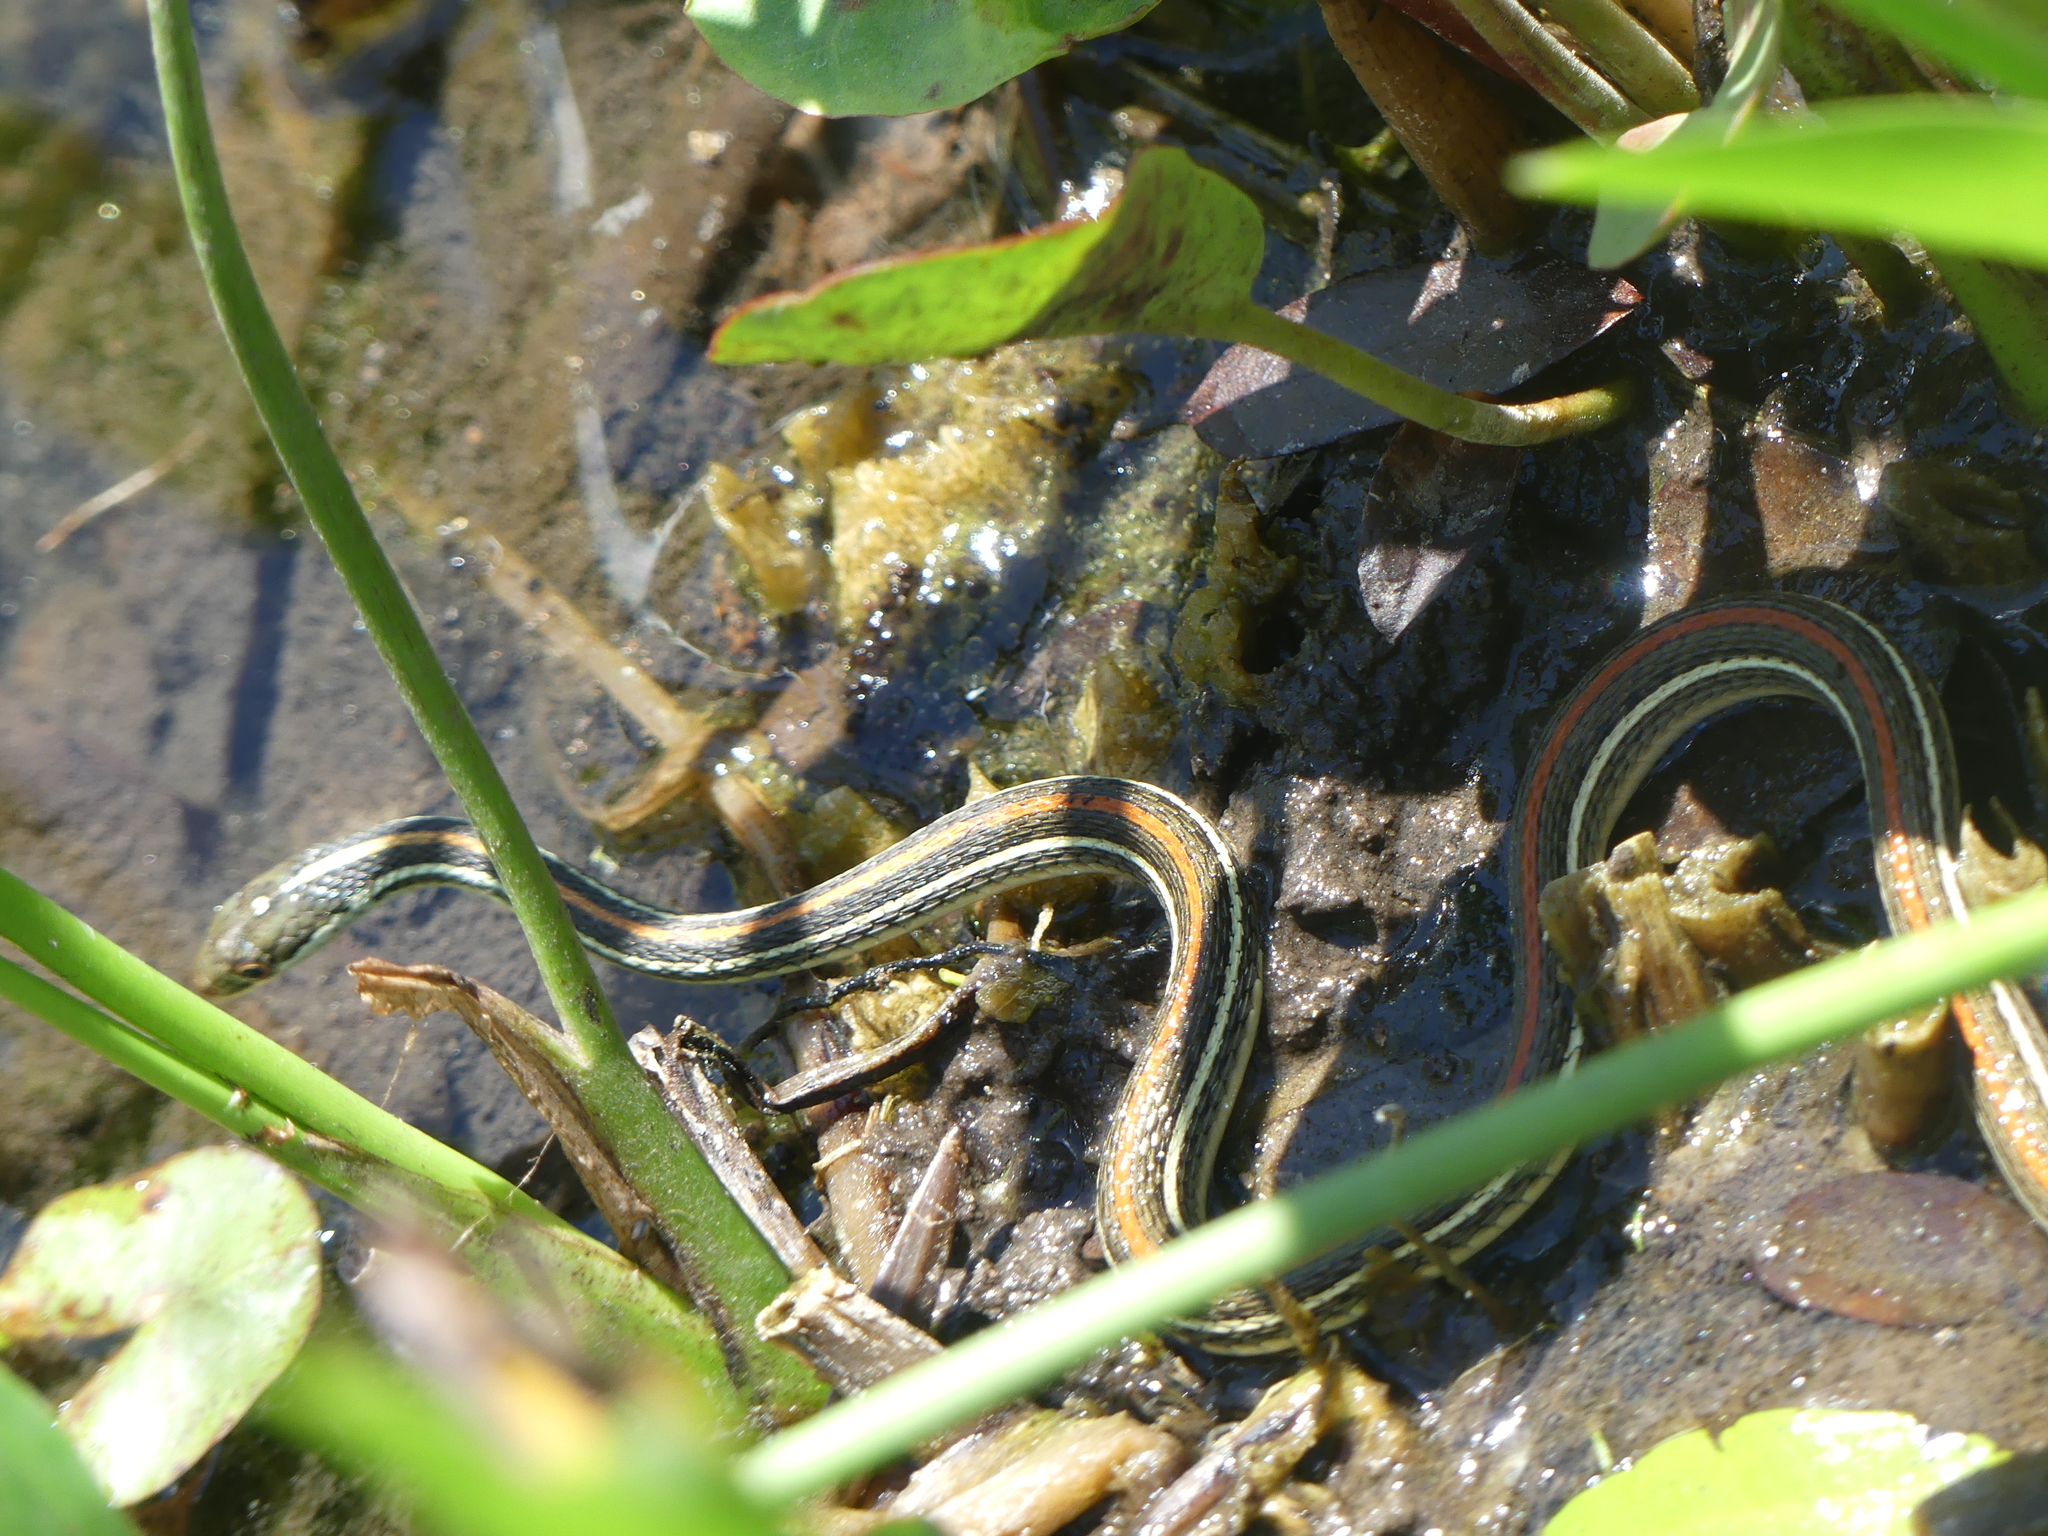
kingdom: Animalia
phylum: Chordata
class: Squamata
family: Colubridae
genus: Thamnophis
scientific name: Thamnophis proximus
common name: Western ribbon snake
